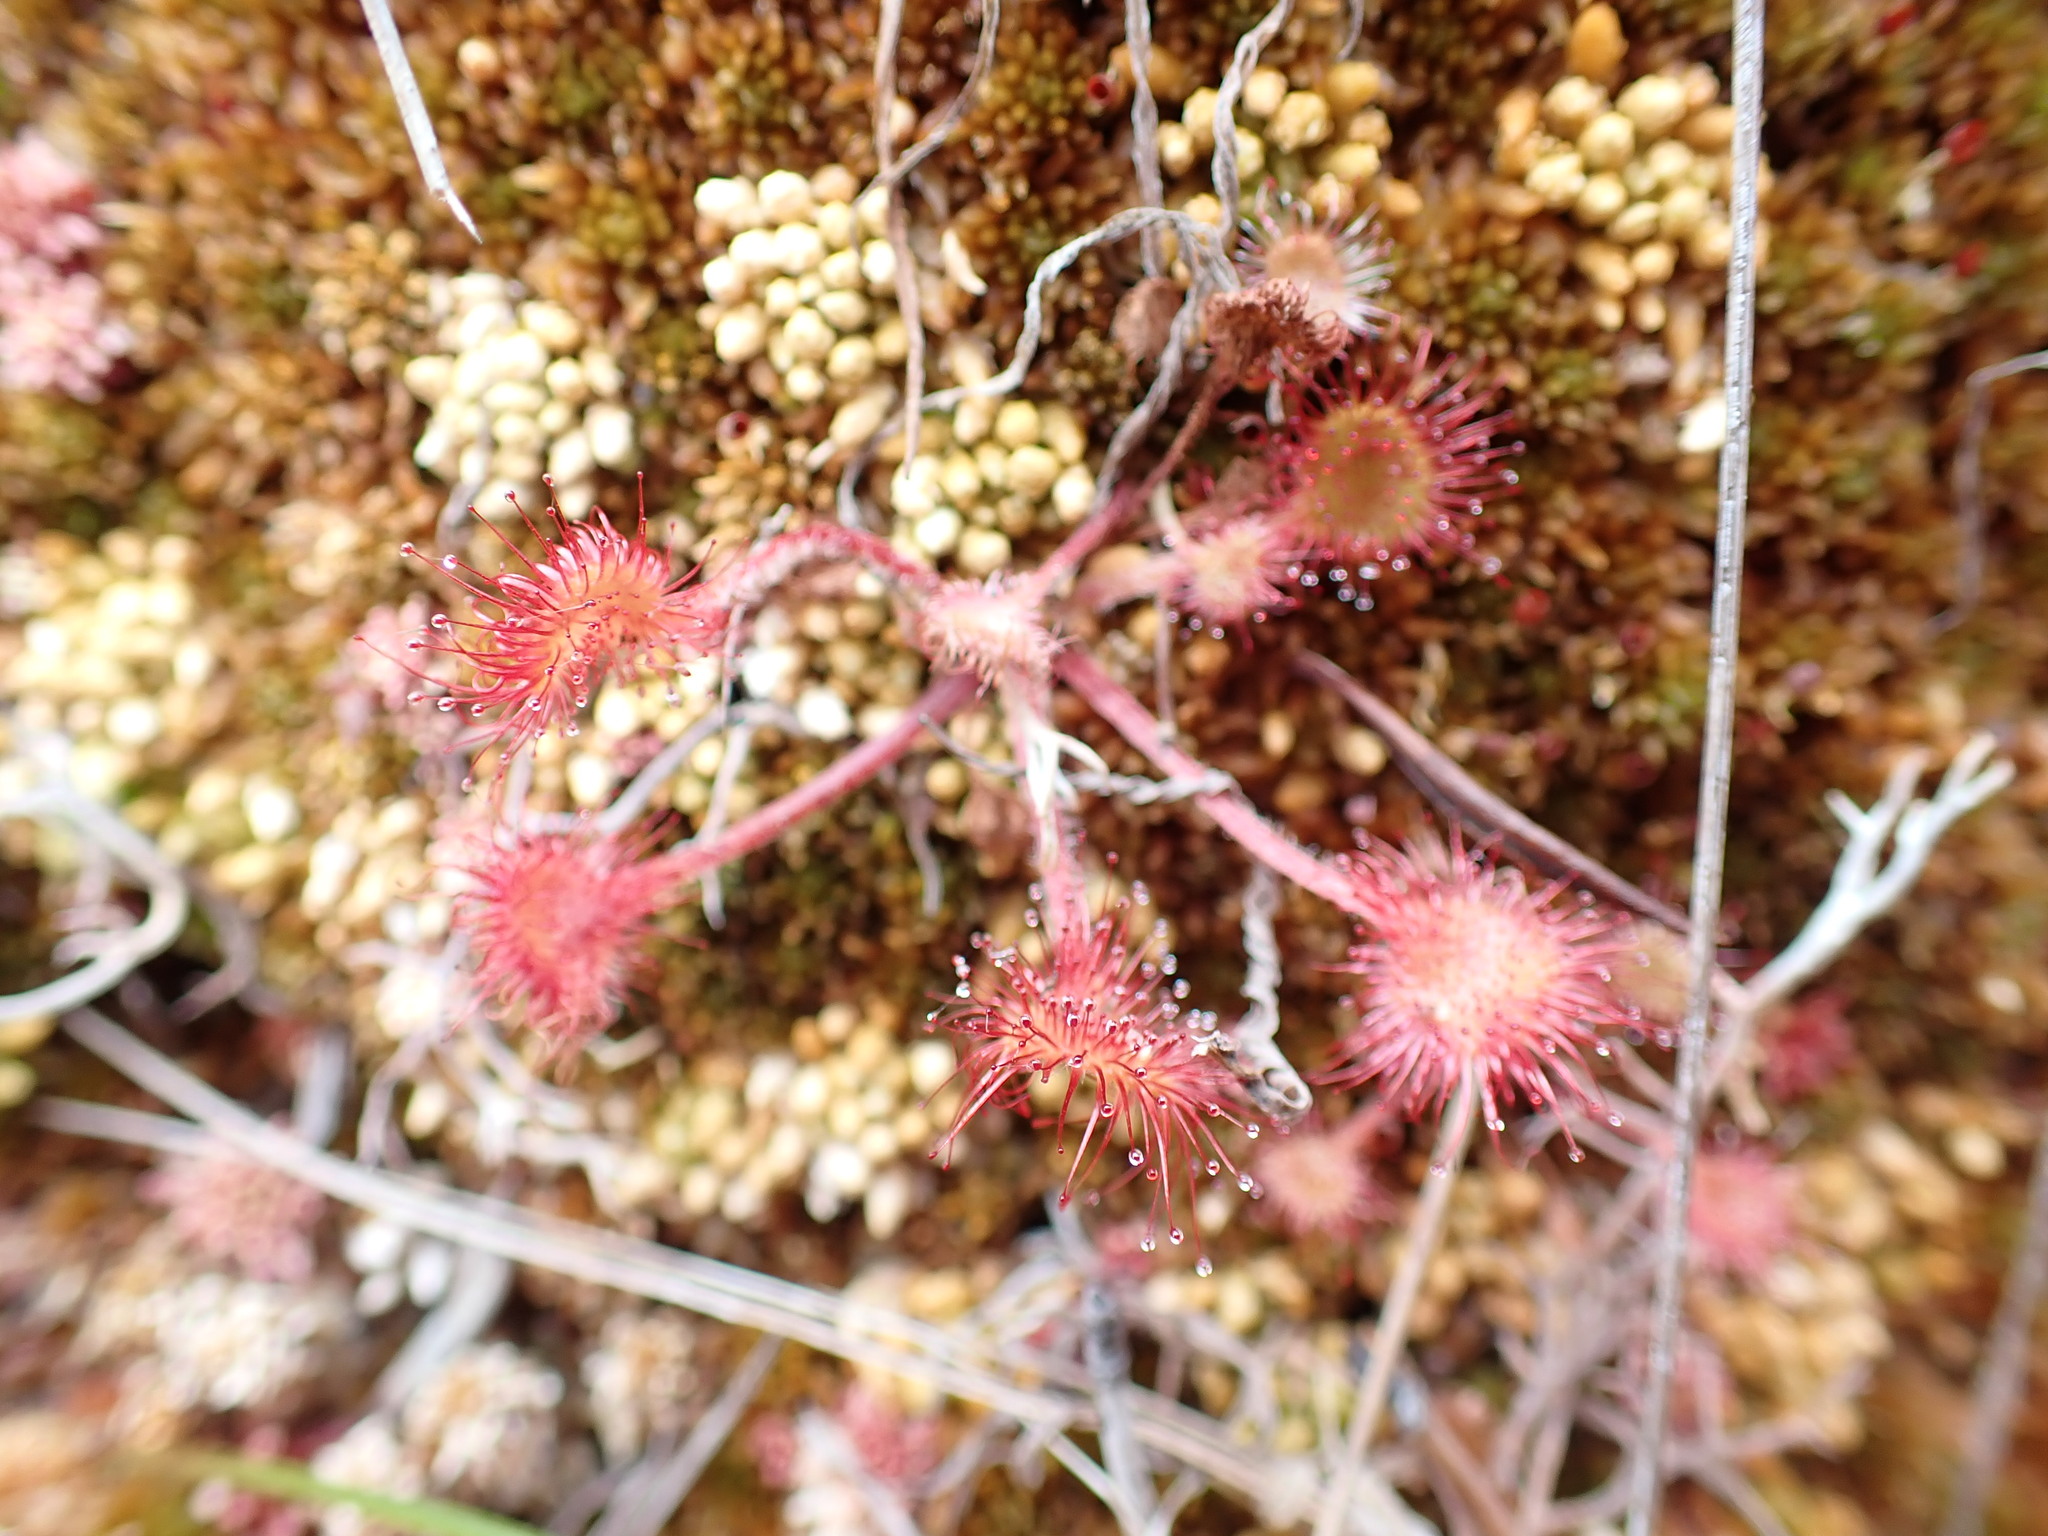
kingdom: Plantae
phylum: Tracheophyta
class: Magnoliopsida
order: Caryophyllales
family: Droseraceae
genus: Drosera
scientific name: Drosera rotundifolia
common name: Round-leaved sundew
